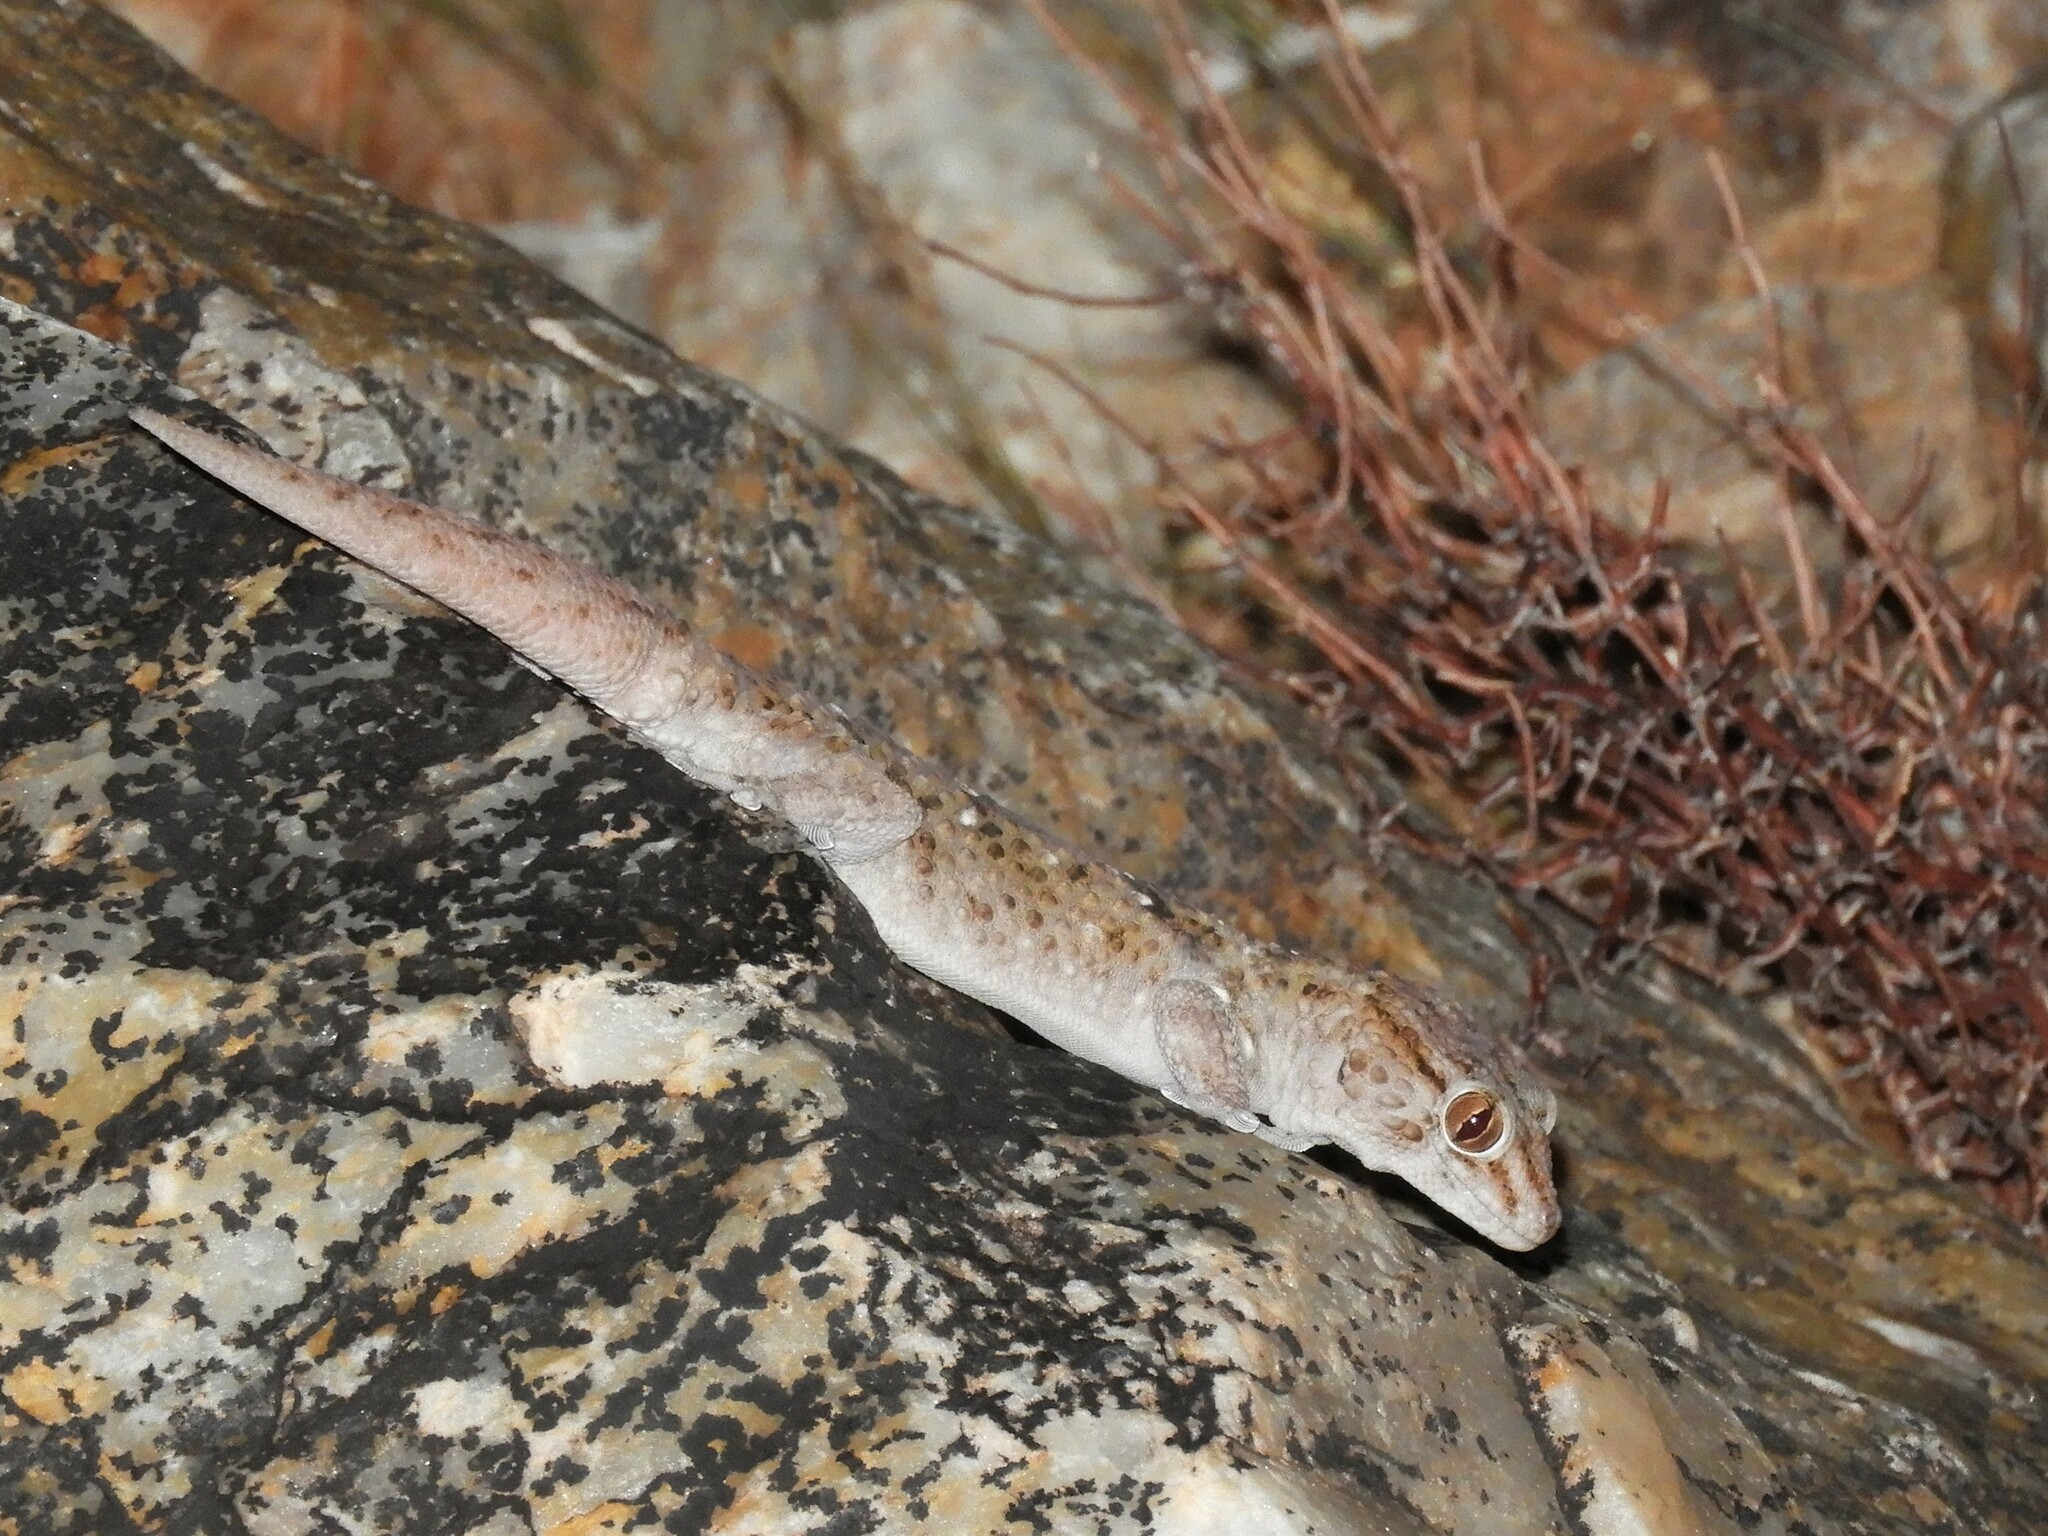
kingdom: Animalia
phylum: Chordata
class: Squamata
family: Gekkonidae
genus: Chondrodactylus
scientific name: Chondrodactylus laevigatus
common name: Fischer's thick-toed gecko
